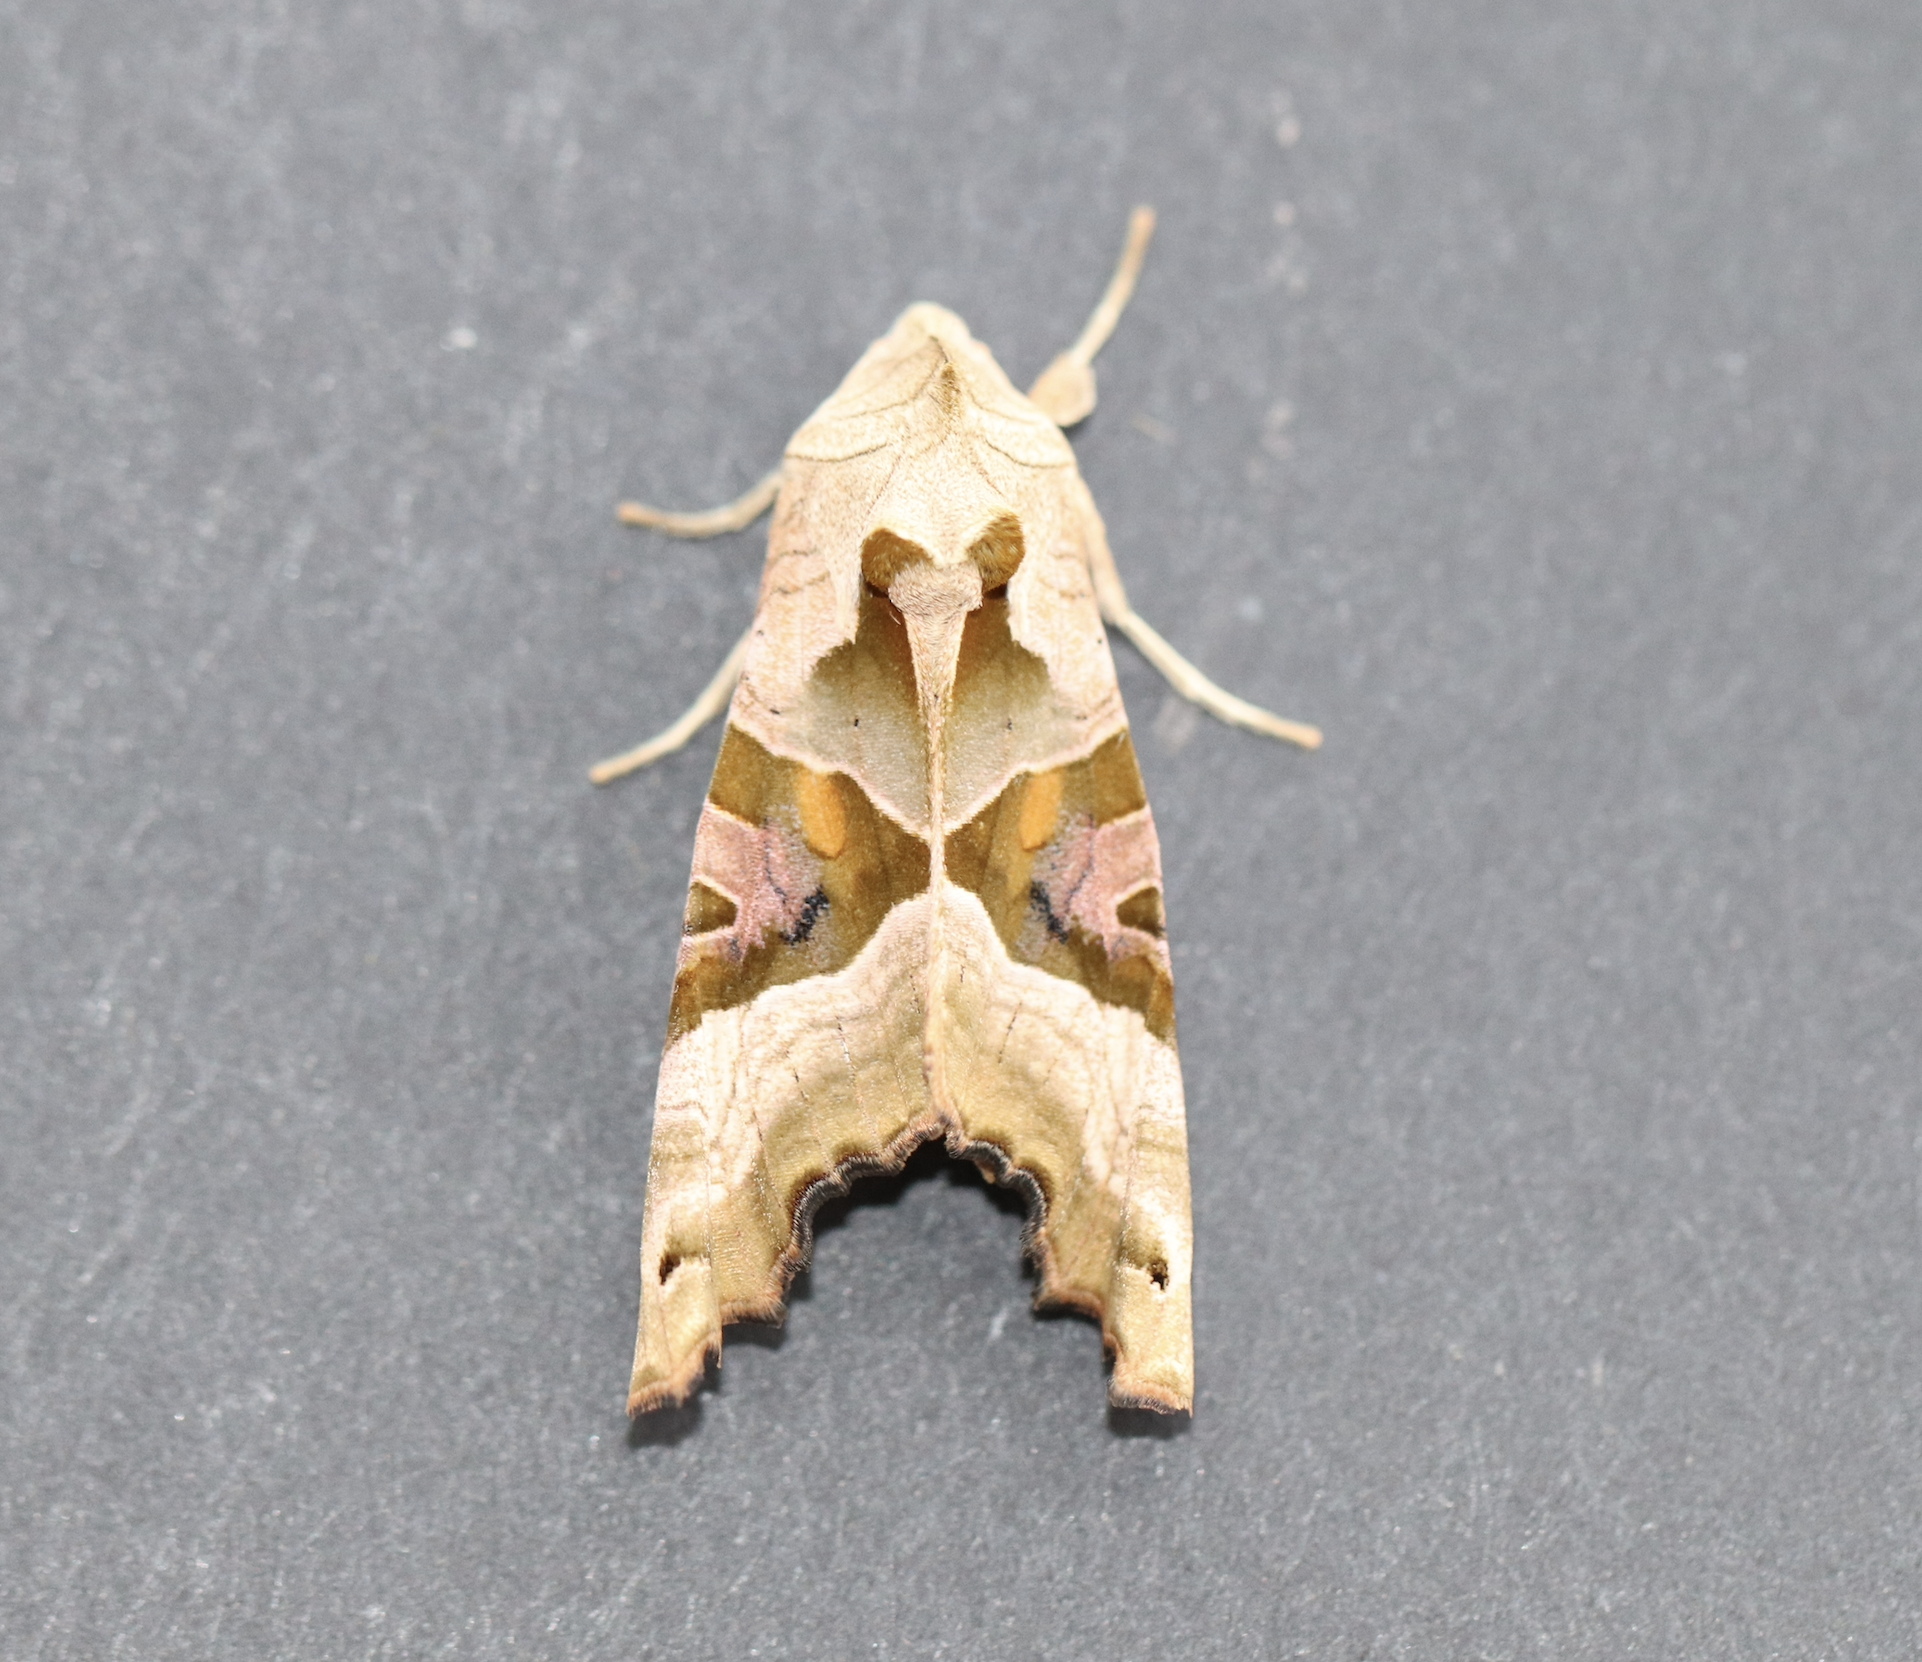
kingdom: Animalia
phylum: Arthropoda
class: Insecta
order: Lepidoptera
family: Noctuidae
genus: Phlogophora
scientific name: Phlogophora meticulosa
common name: Angle shades
